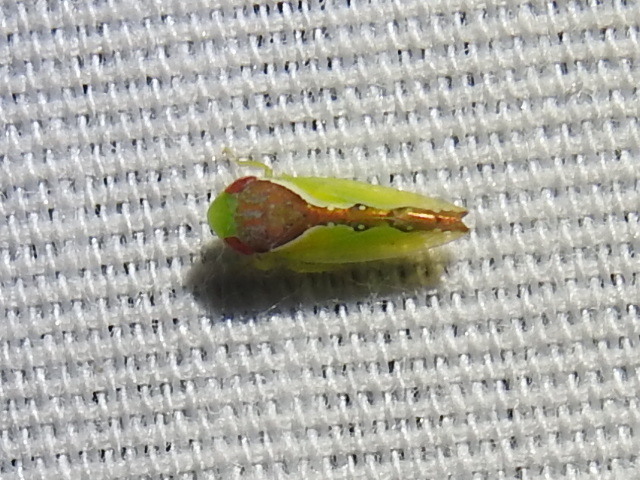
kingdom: Animalia
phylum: Arthropoda
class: Insecta
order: Hemiptera
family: Cicadellidae
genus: Omansobara ing
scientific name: Omansobara ing Omansobara palliolata
